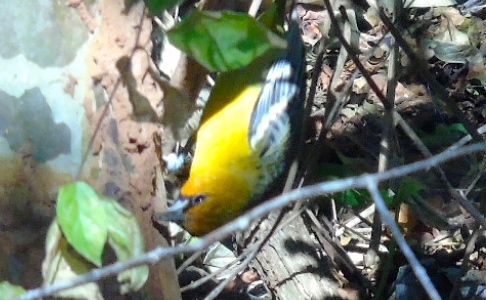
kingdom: Animalia
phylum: Chordata
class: Aves
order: Passeriformes
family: Icteridae
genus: Icterus
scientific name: Icterus pustulatus
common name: Streak-backed oriole
